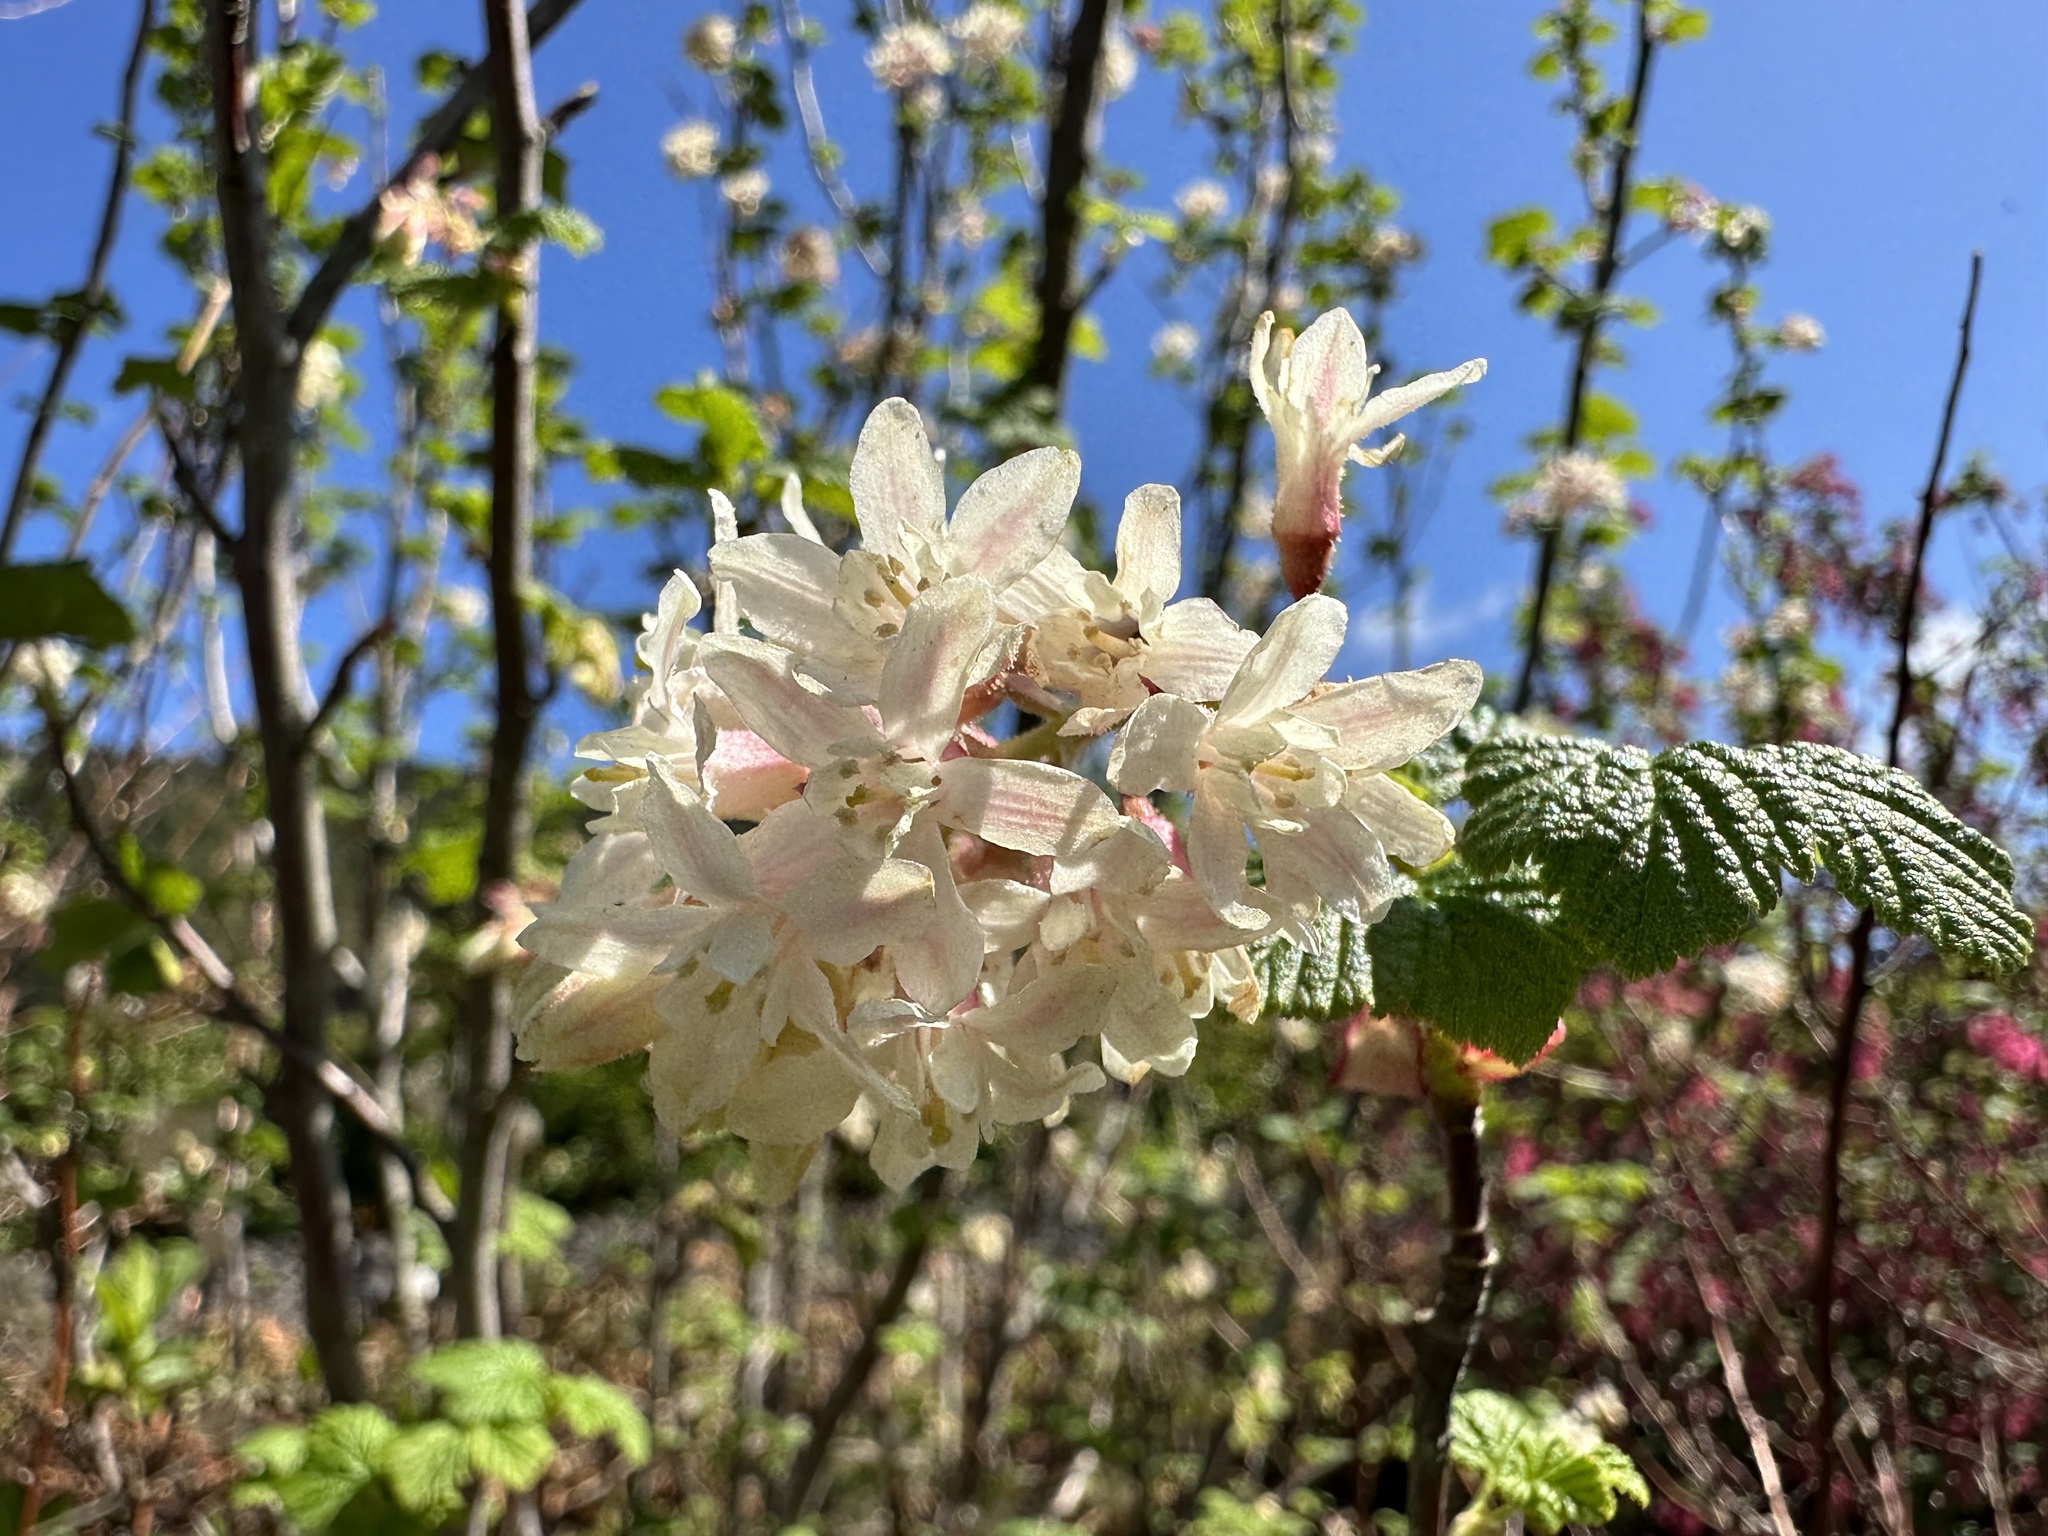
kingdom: Plantae
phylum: Tracheophyta
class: Magnoliopsida
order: Saxifragales
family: Grossulariaceae
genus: Ribes
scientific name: Ribes sanguineum
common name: Flowering currant
